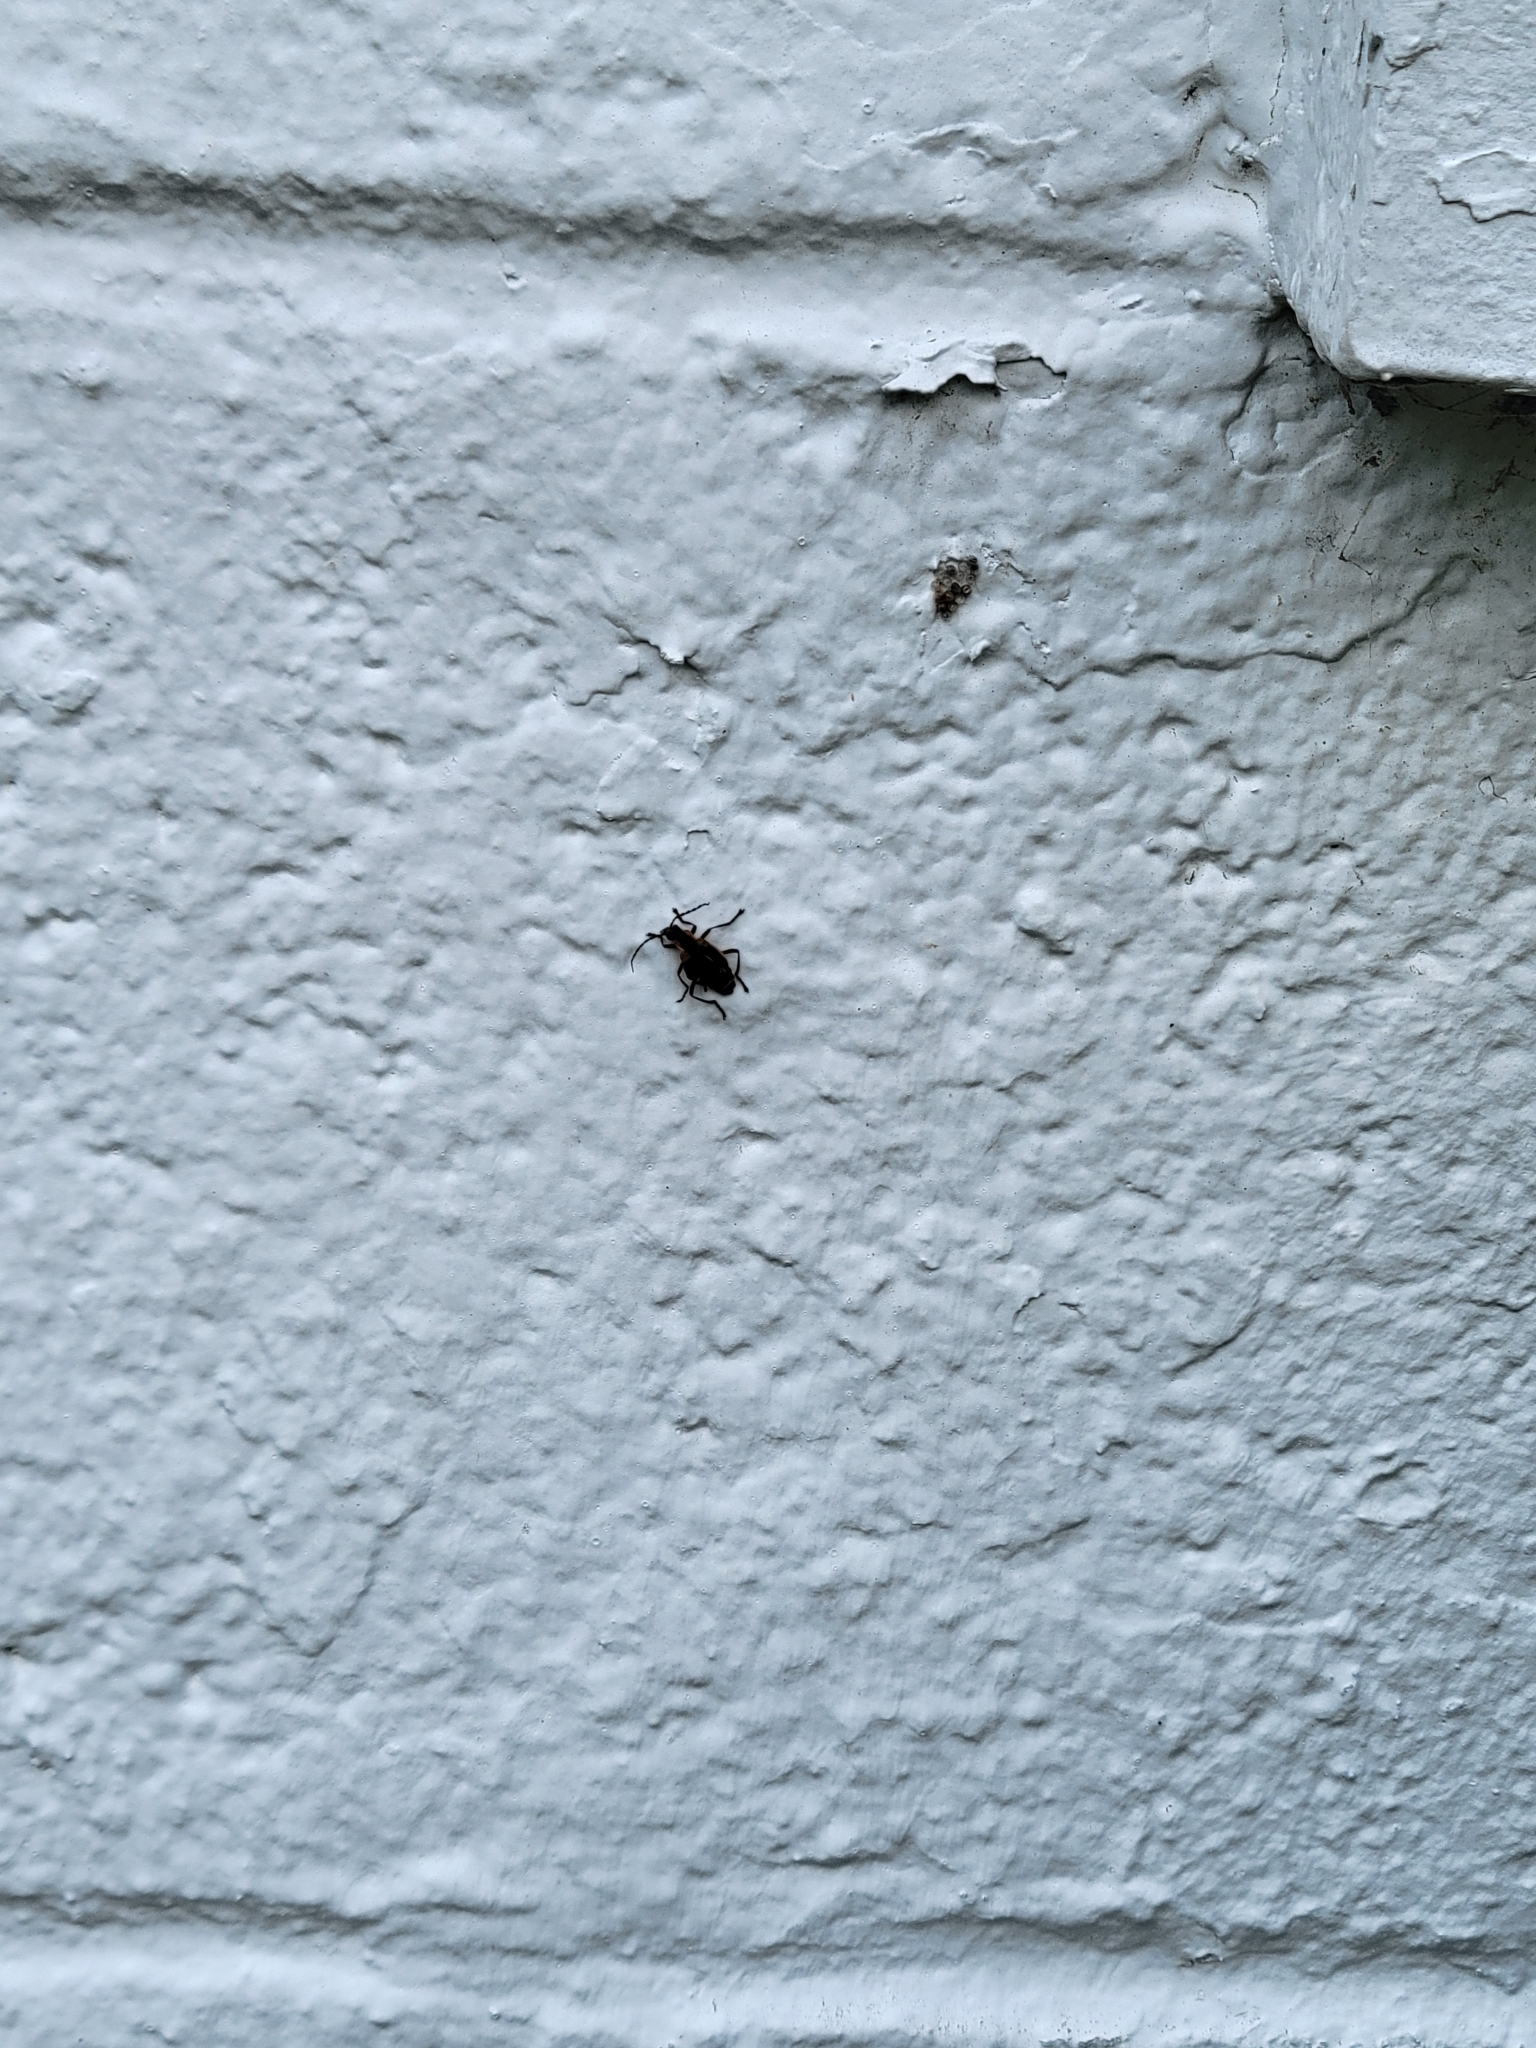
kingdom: Animalia
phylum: Arthropoda
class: Insecta
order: Coleoptera
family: Cantharidae
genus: Chauliognathus
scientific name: Chauliognathus marginatus
